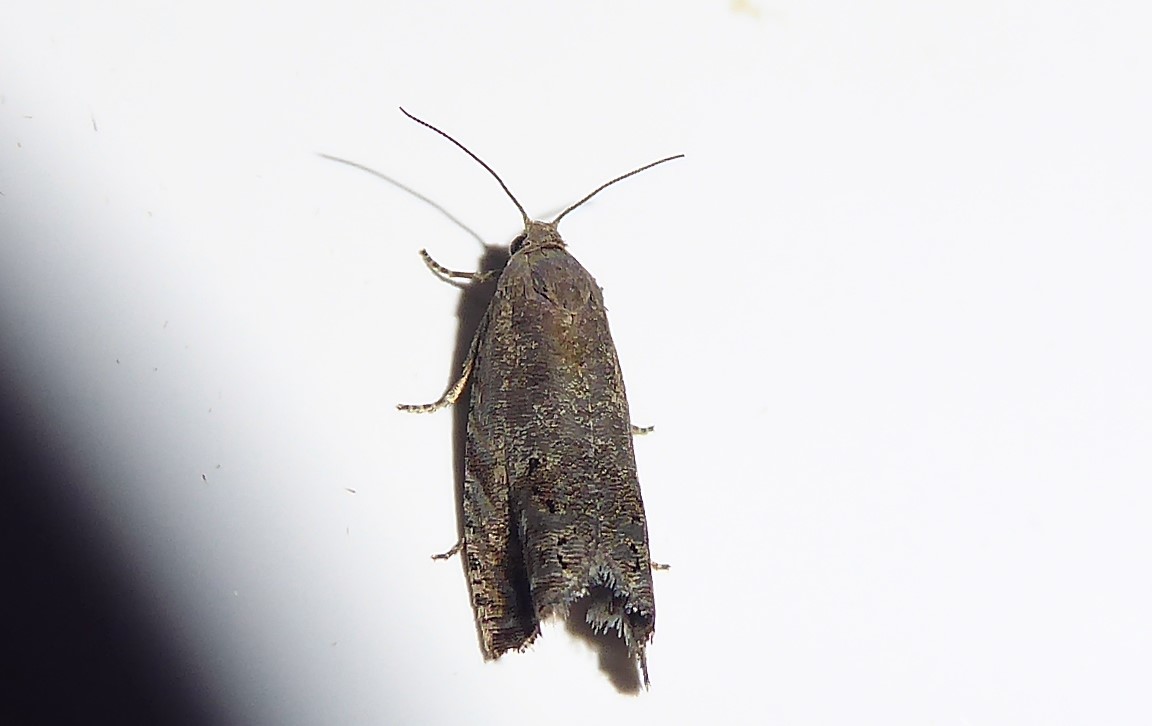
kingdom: Animalia
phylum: Arthropoda
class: Insecta
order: Lepidoptera
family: Tortricidae
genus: Cydia
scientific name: Cydia succedana
